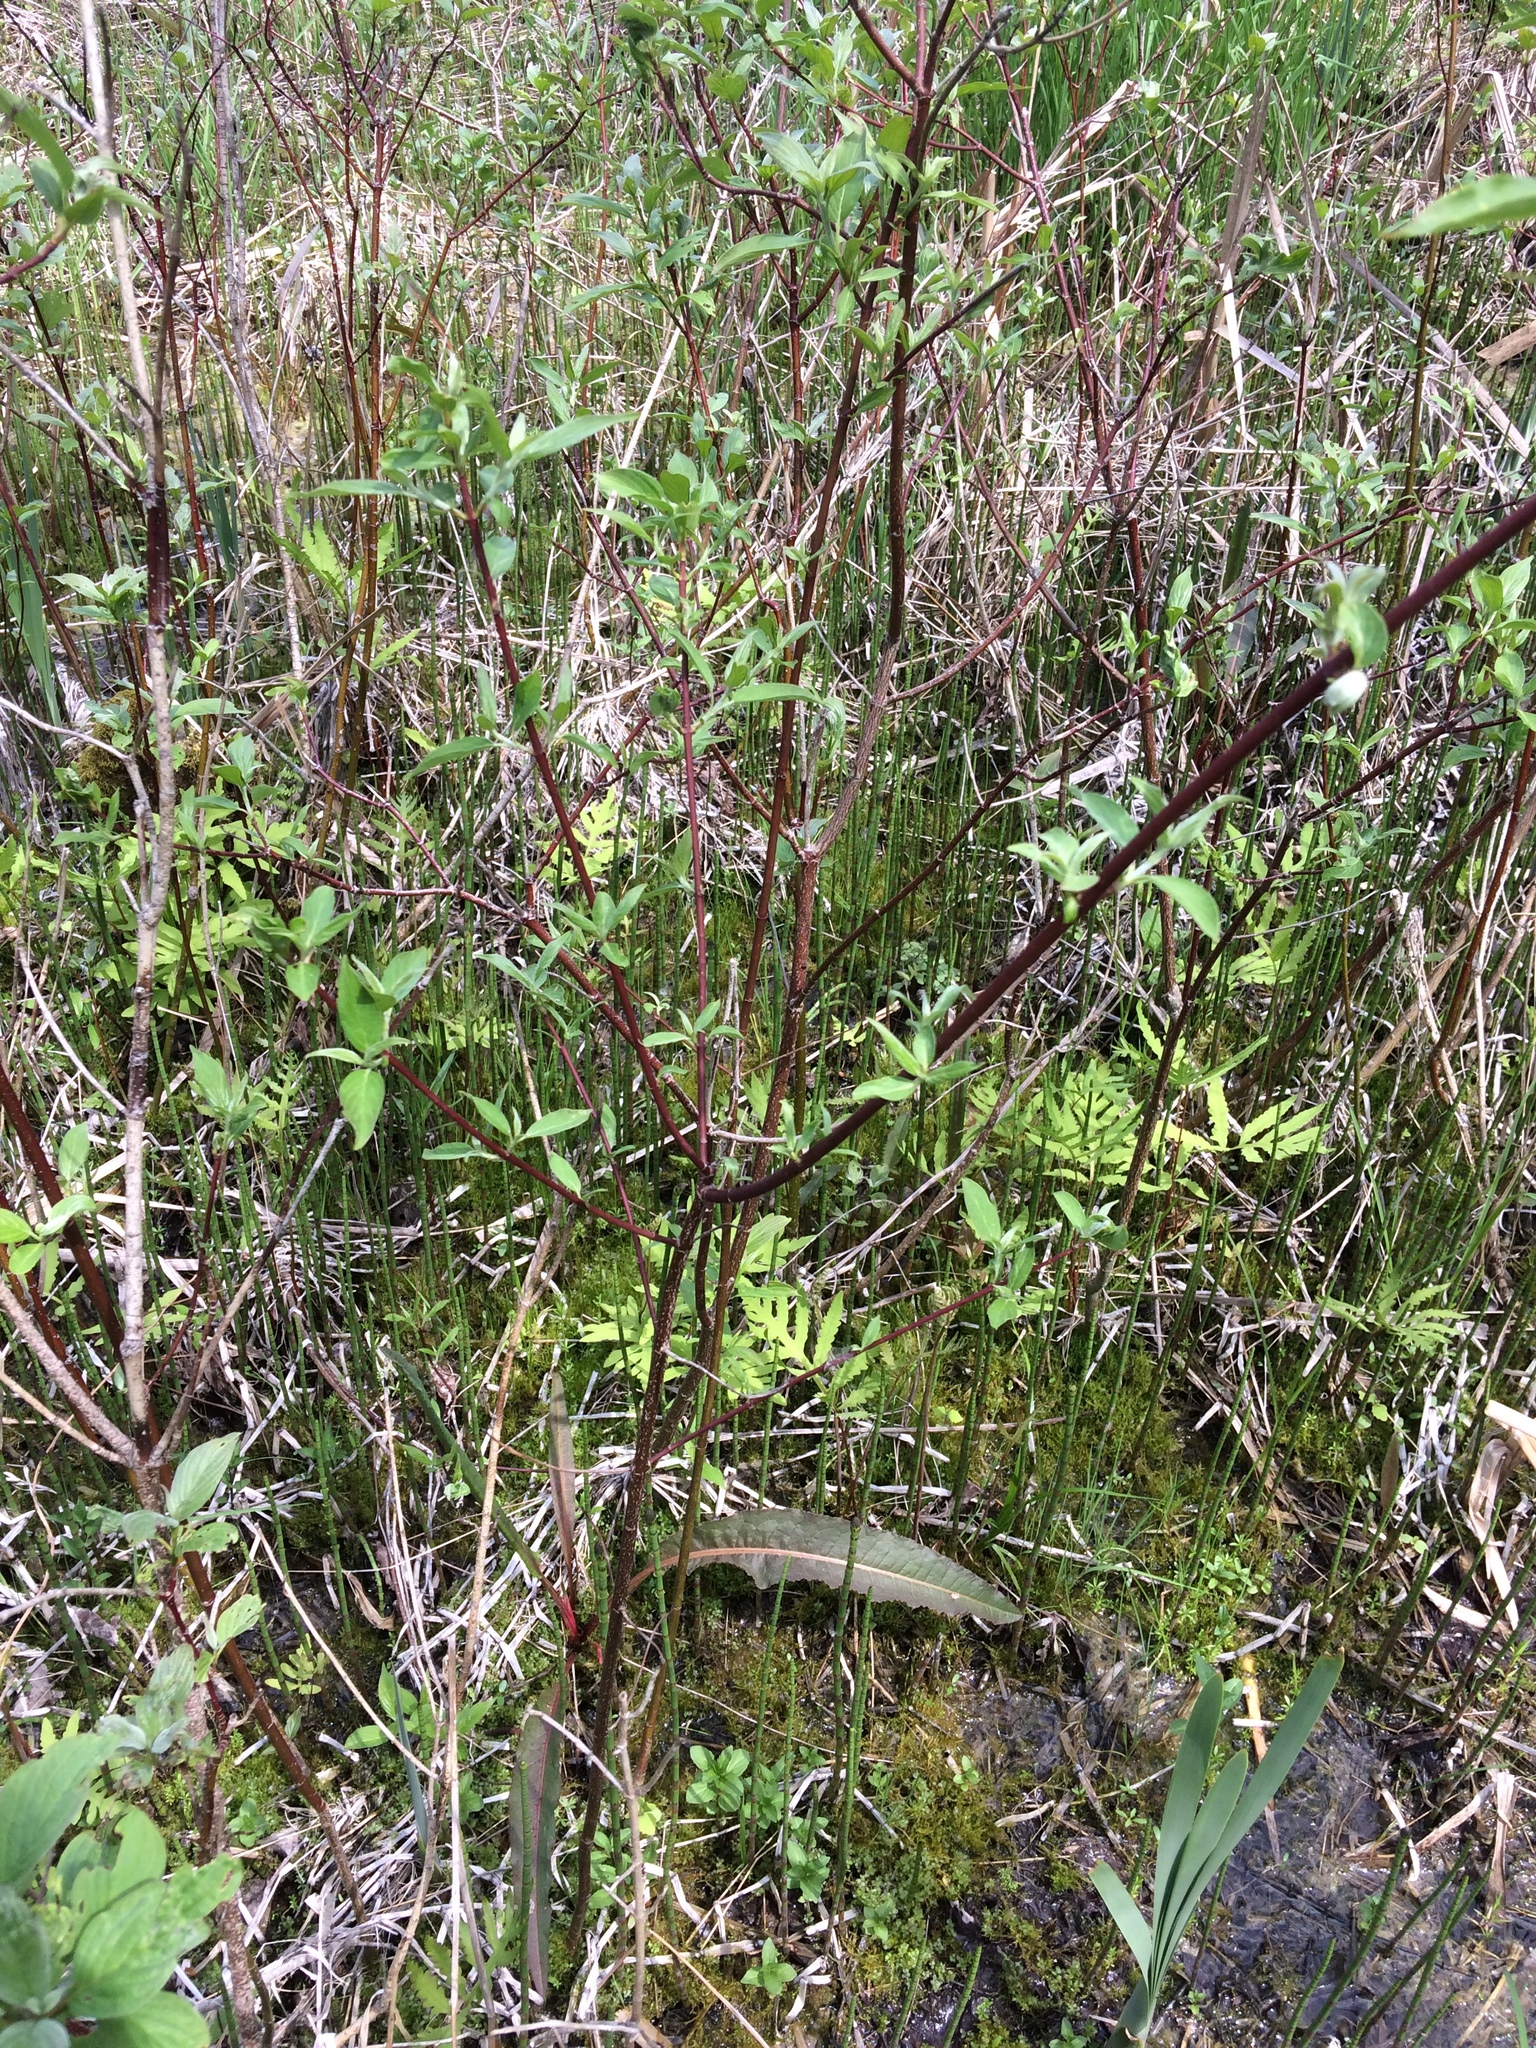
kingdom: Plantae
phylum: Tracheophyta
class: Magnoliopsida
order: Cornales
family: Cornaceae
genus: Cornus
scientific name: Cornus amomum
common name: Silky dogwood
